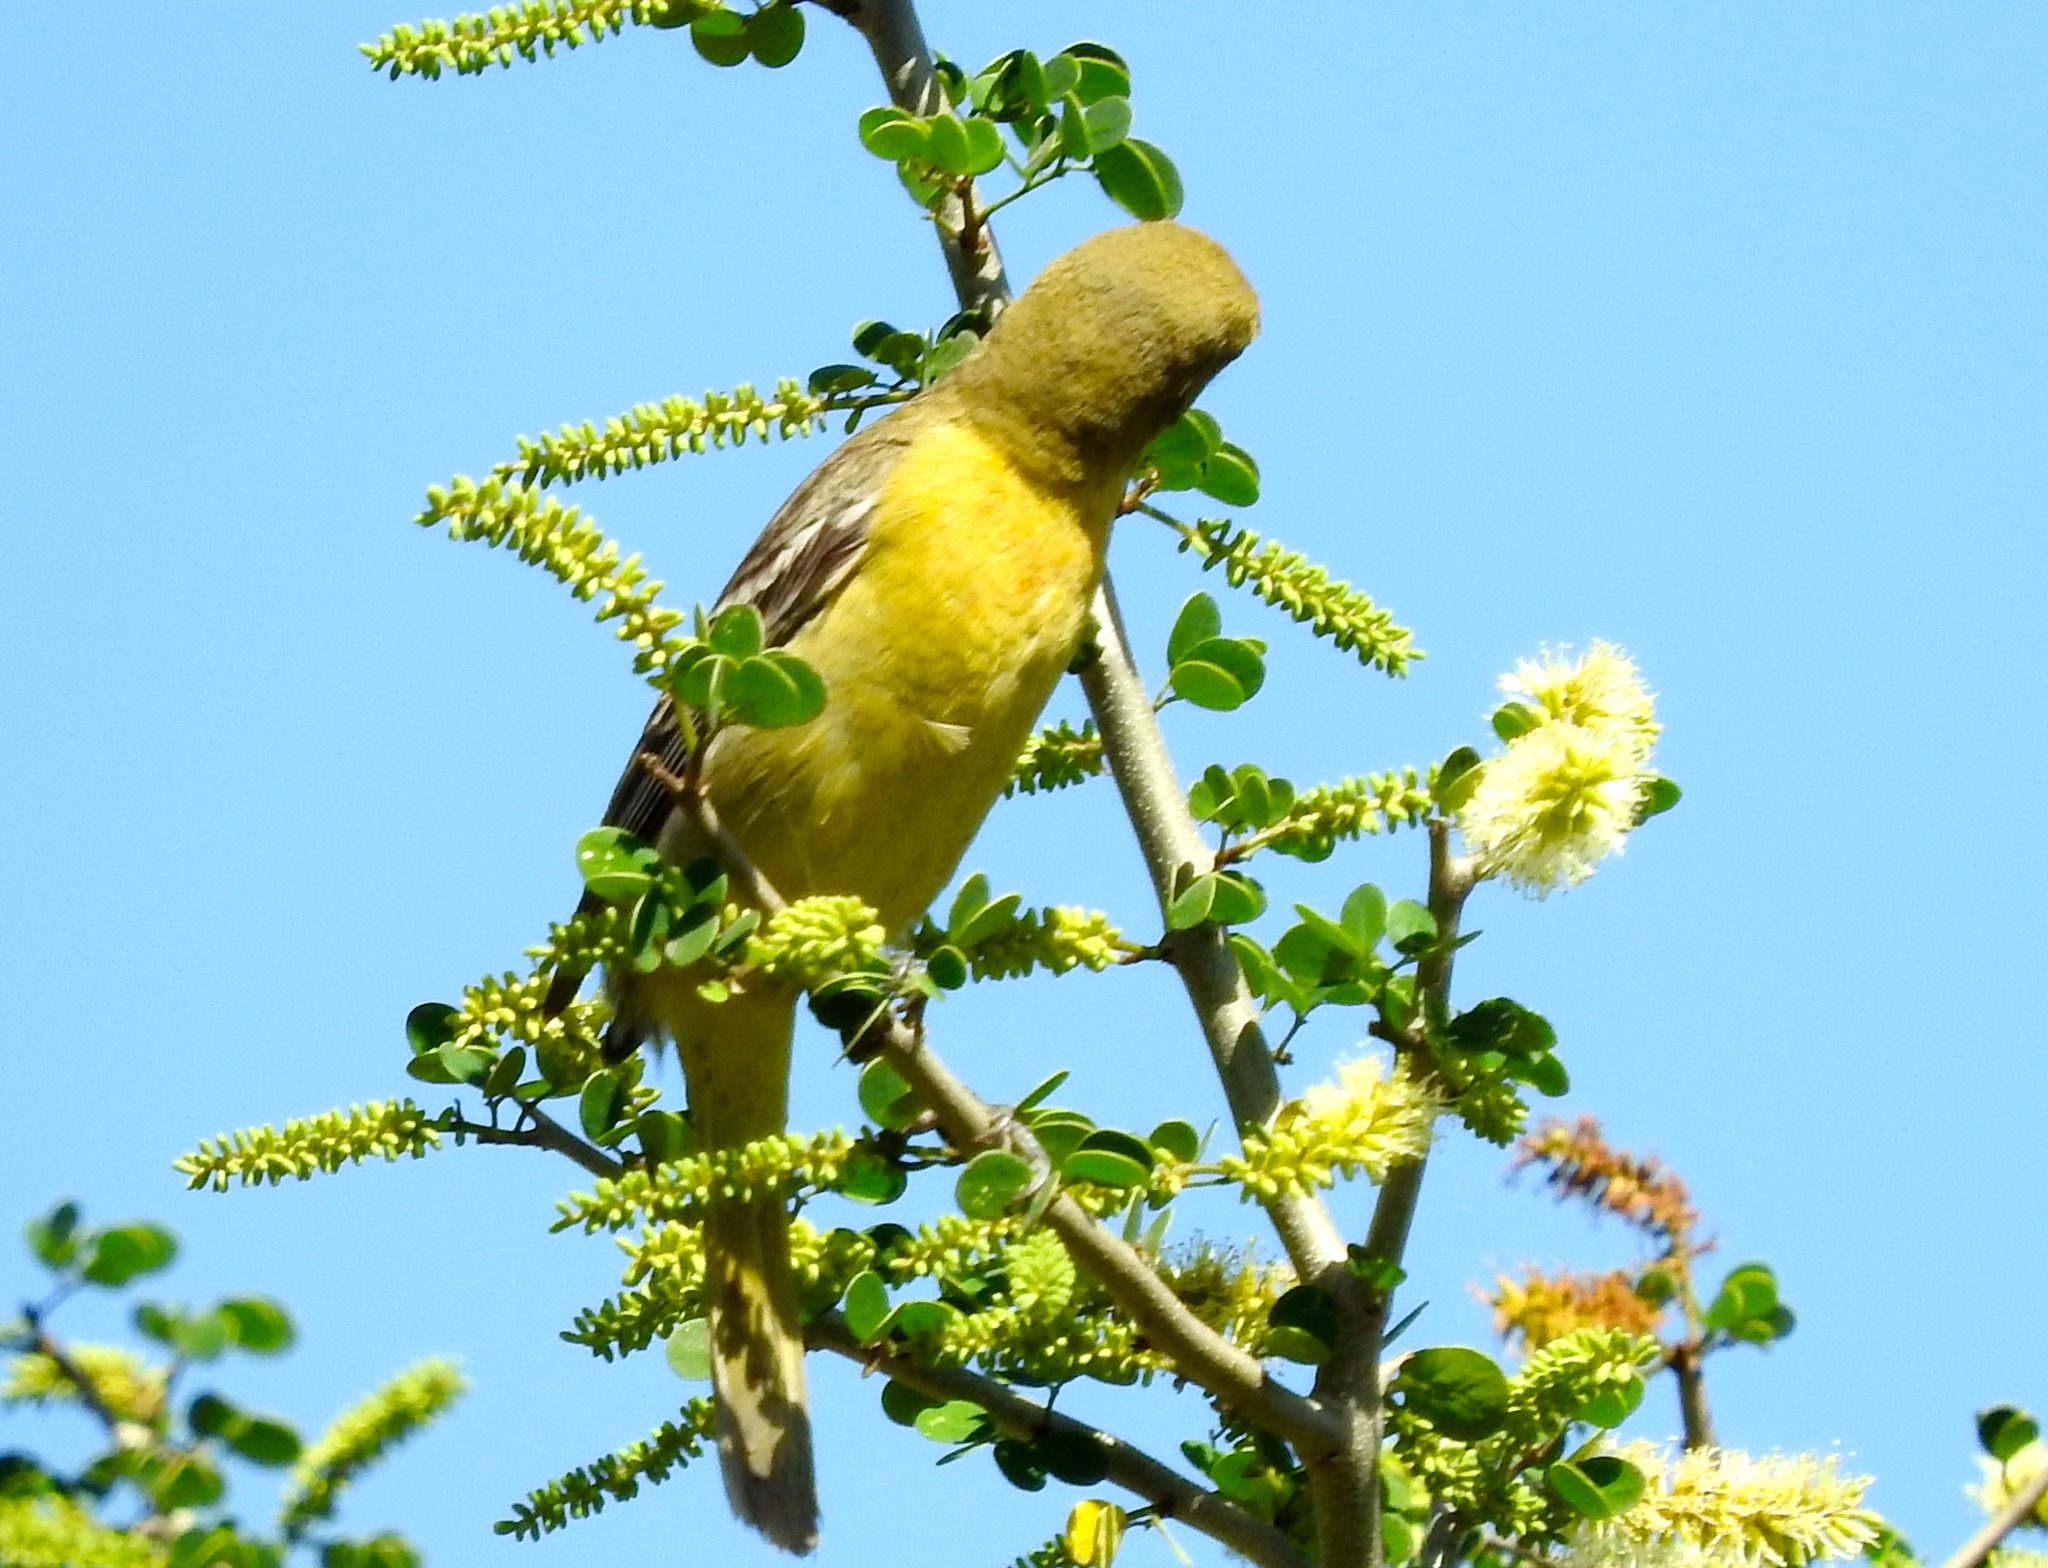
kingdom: Animalia
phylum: Chordata
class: Aves
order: Passeriformes
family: Icteridae
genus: Icterus
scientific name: Icterus spurius
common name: Orchard oriole
